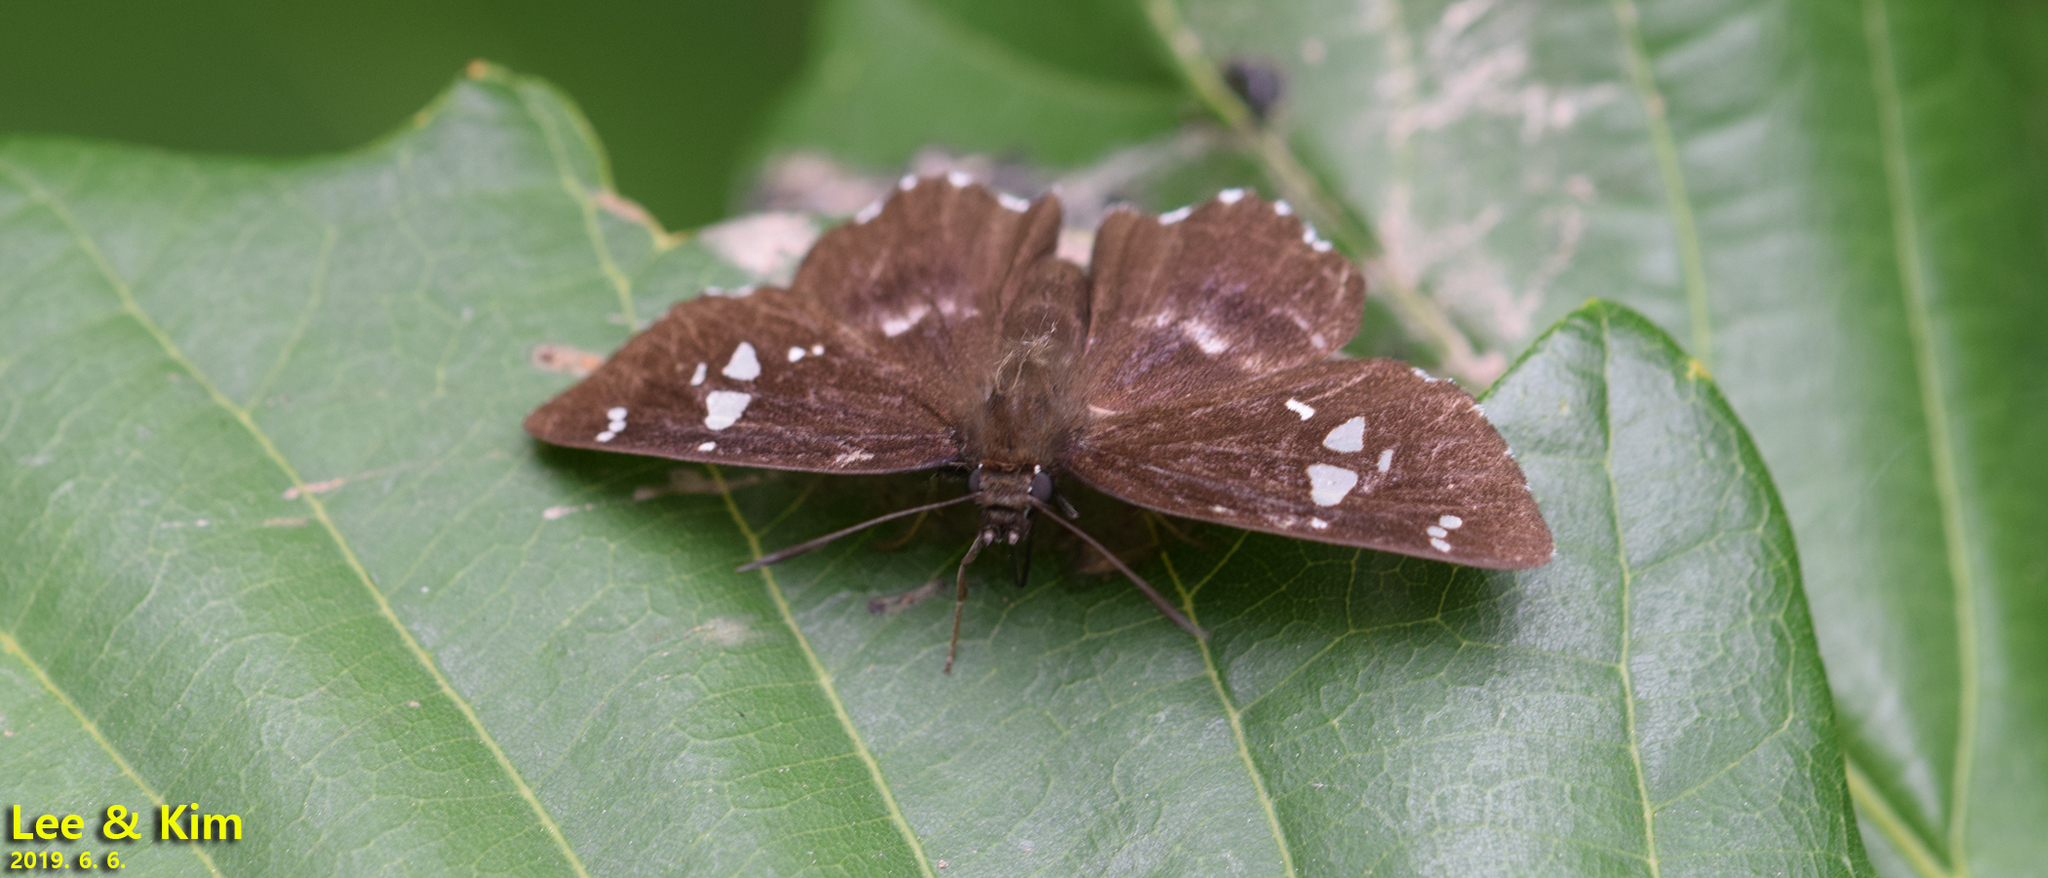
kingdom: Animalia
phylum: Arthropoda
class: Insecta
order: Lepidoptera
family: Hesperiidae
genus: Daimio
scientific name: Daimio tethys
